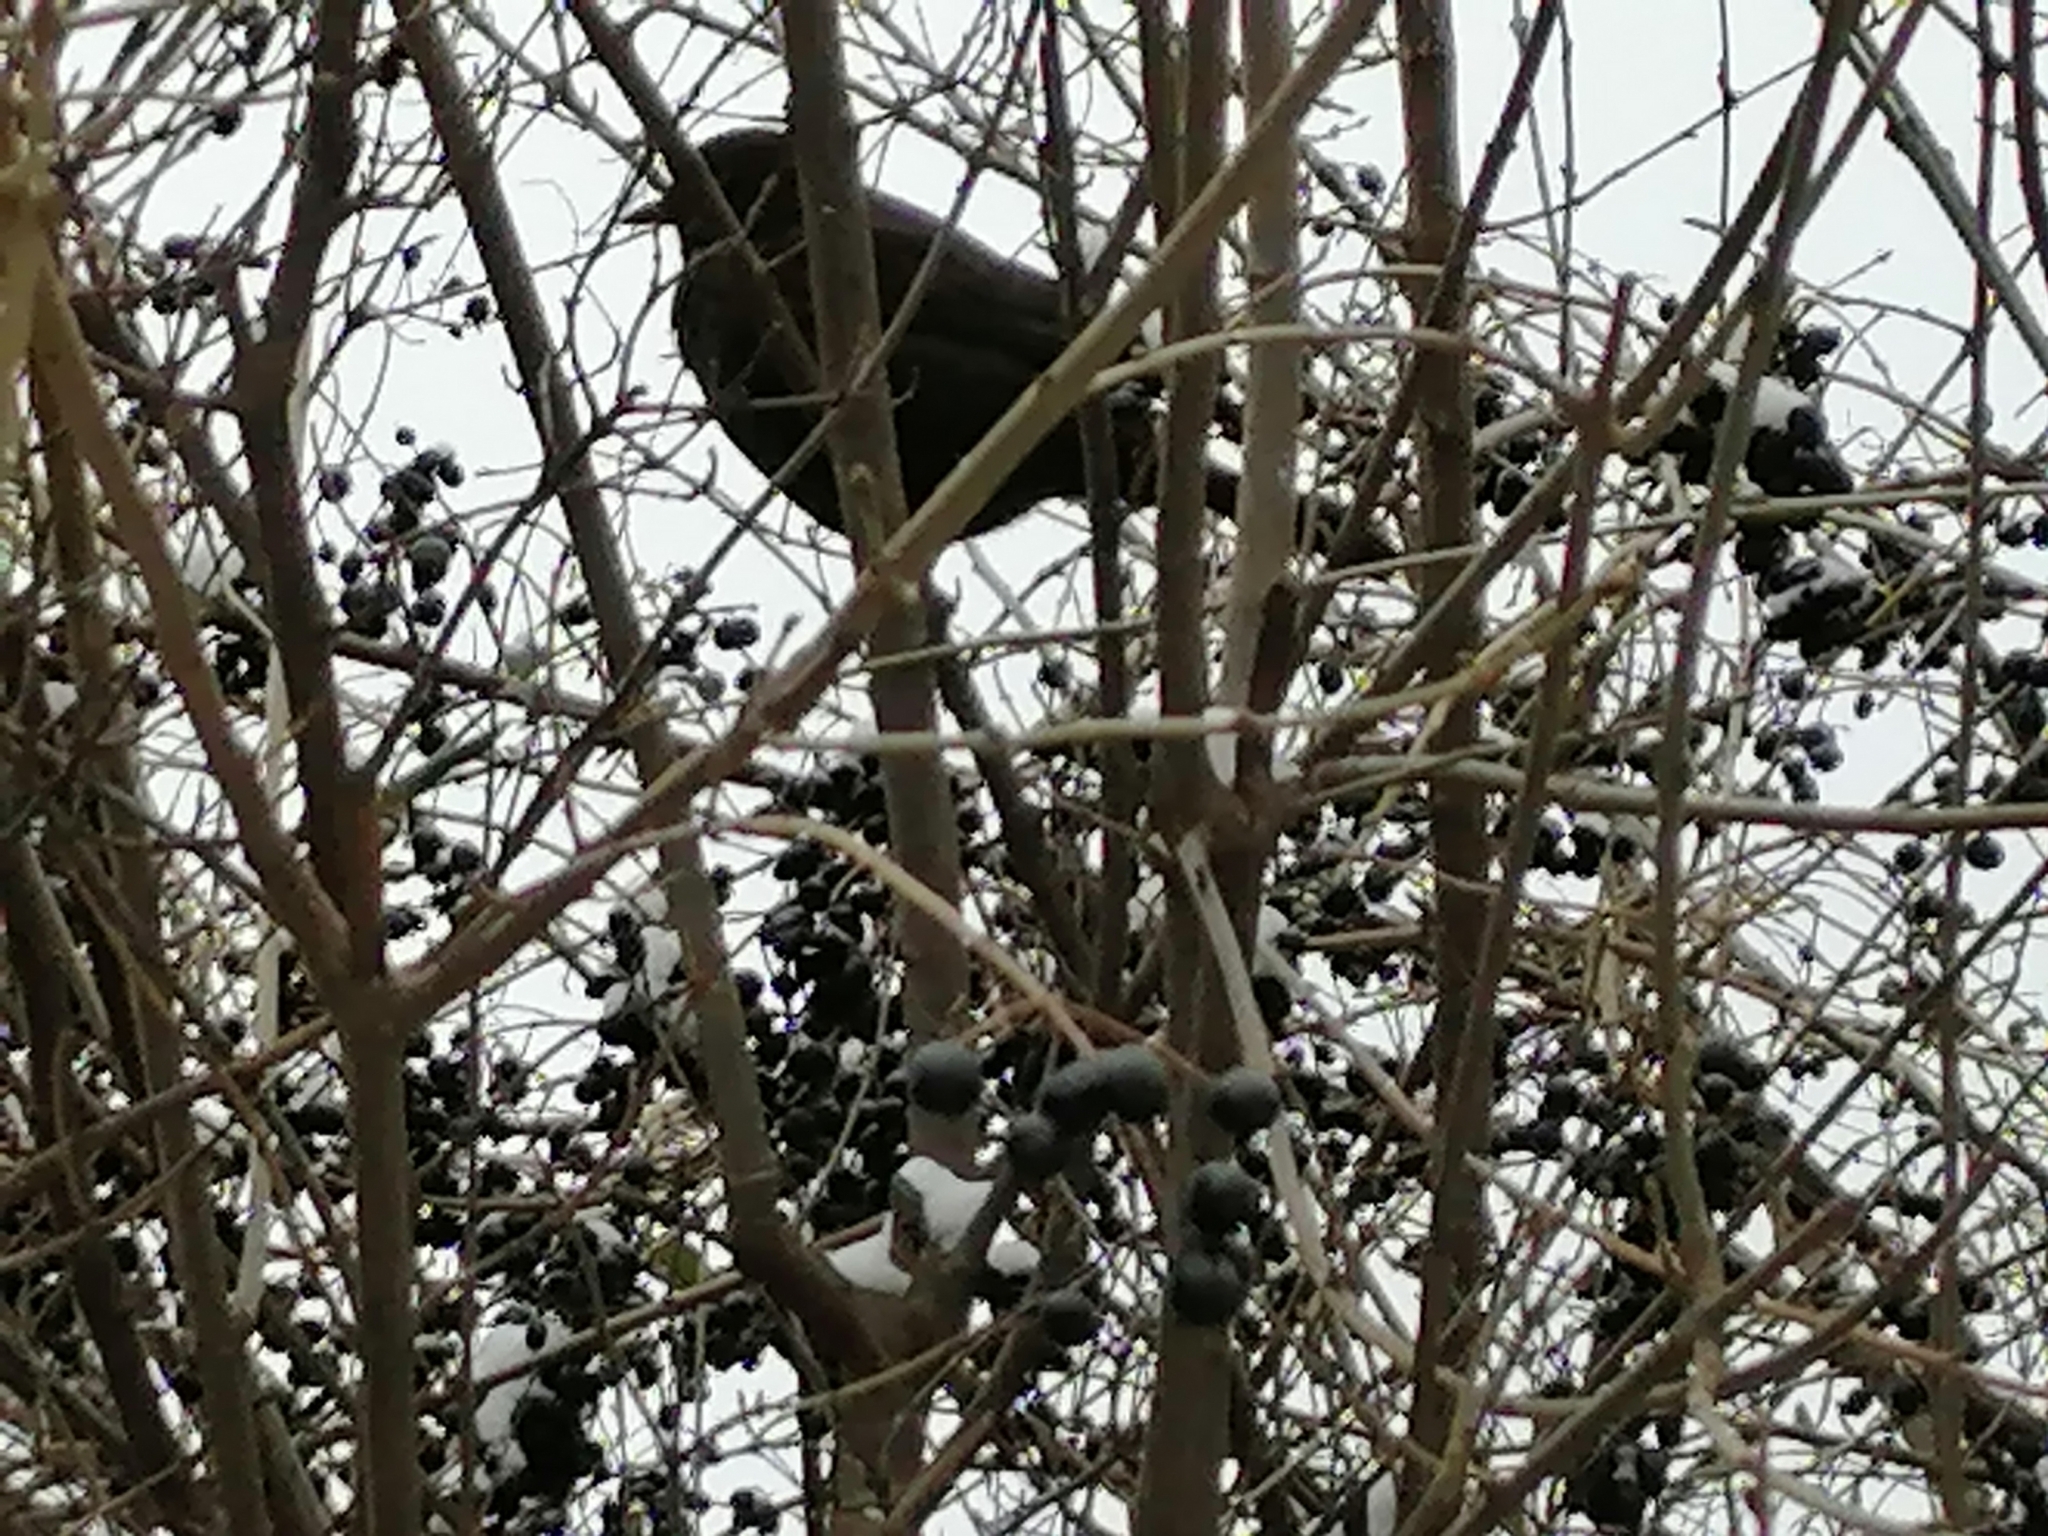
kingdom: Animalia
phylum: Chordata
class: Aves
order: Passeriformes
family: Turdidae
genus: Turdus
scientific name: Turdus merula
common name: Common blackbird
